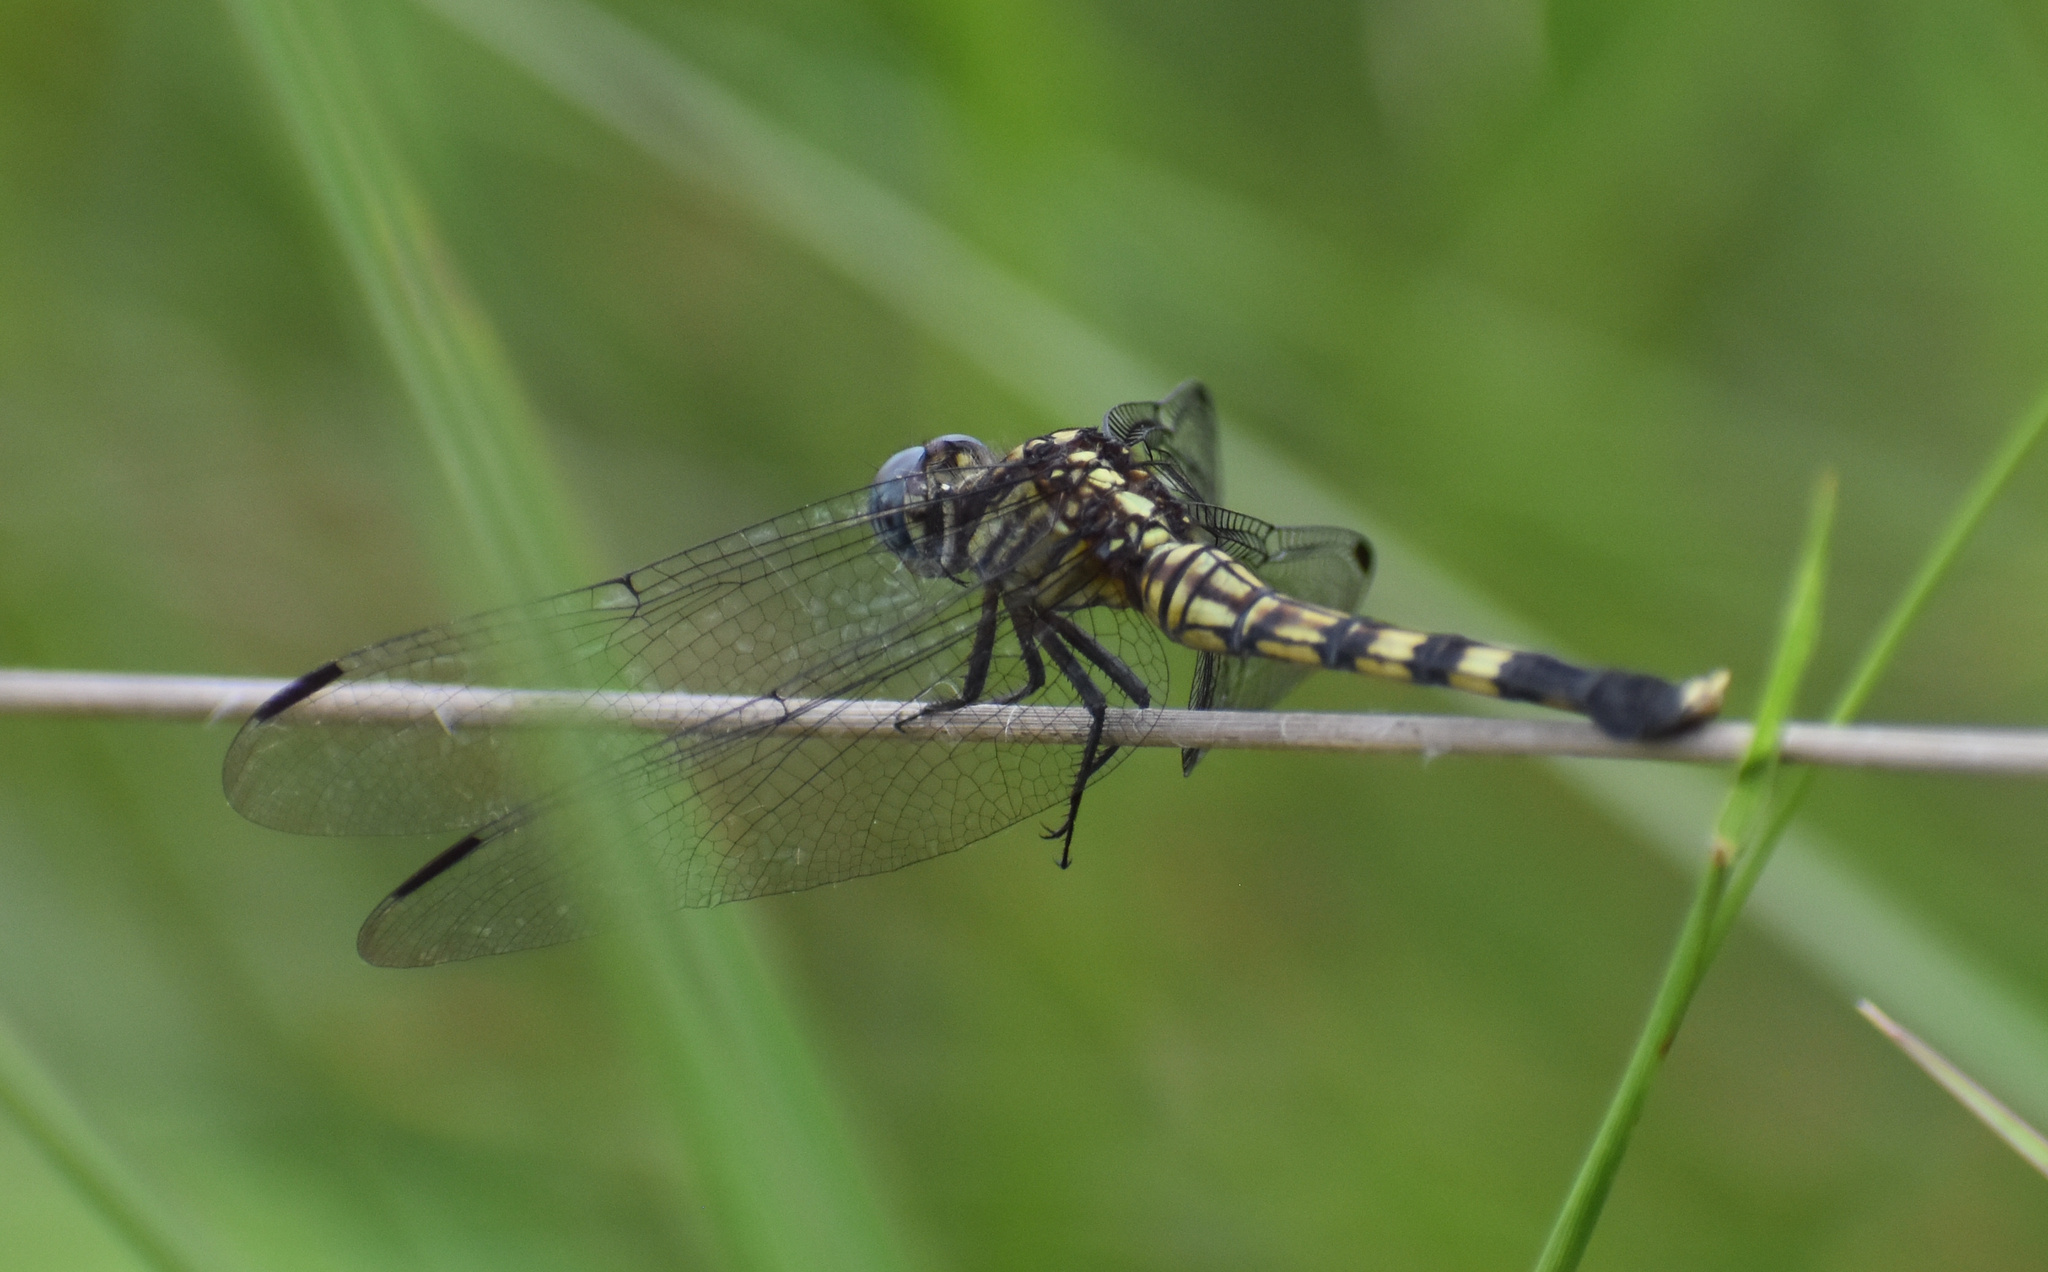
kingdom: Animalia
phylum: Arthropoda
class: Insecta
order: Odonata
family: Libellulidae
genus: Orthetrum
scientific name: Orthetrum julia
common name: Julia skimmer
